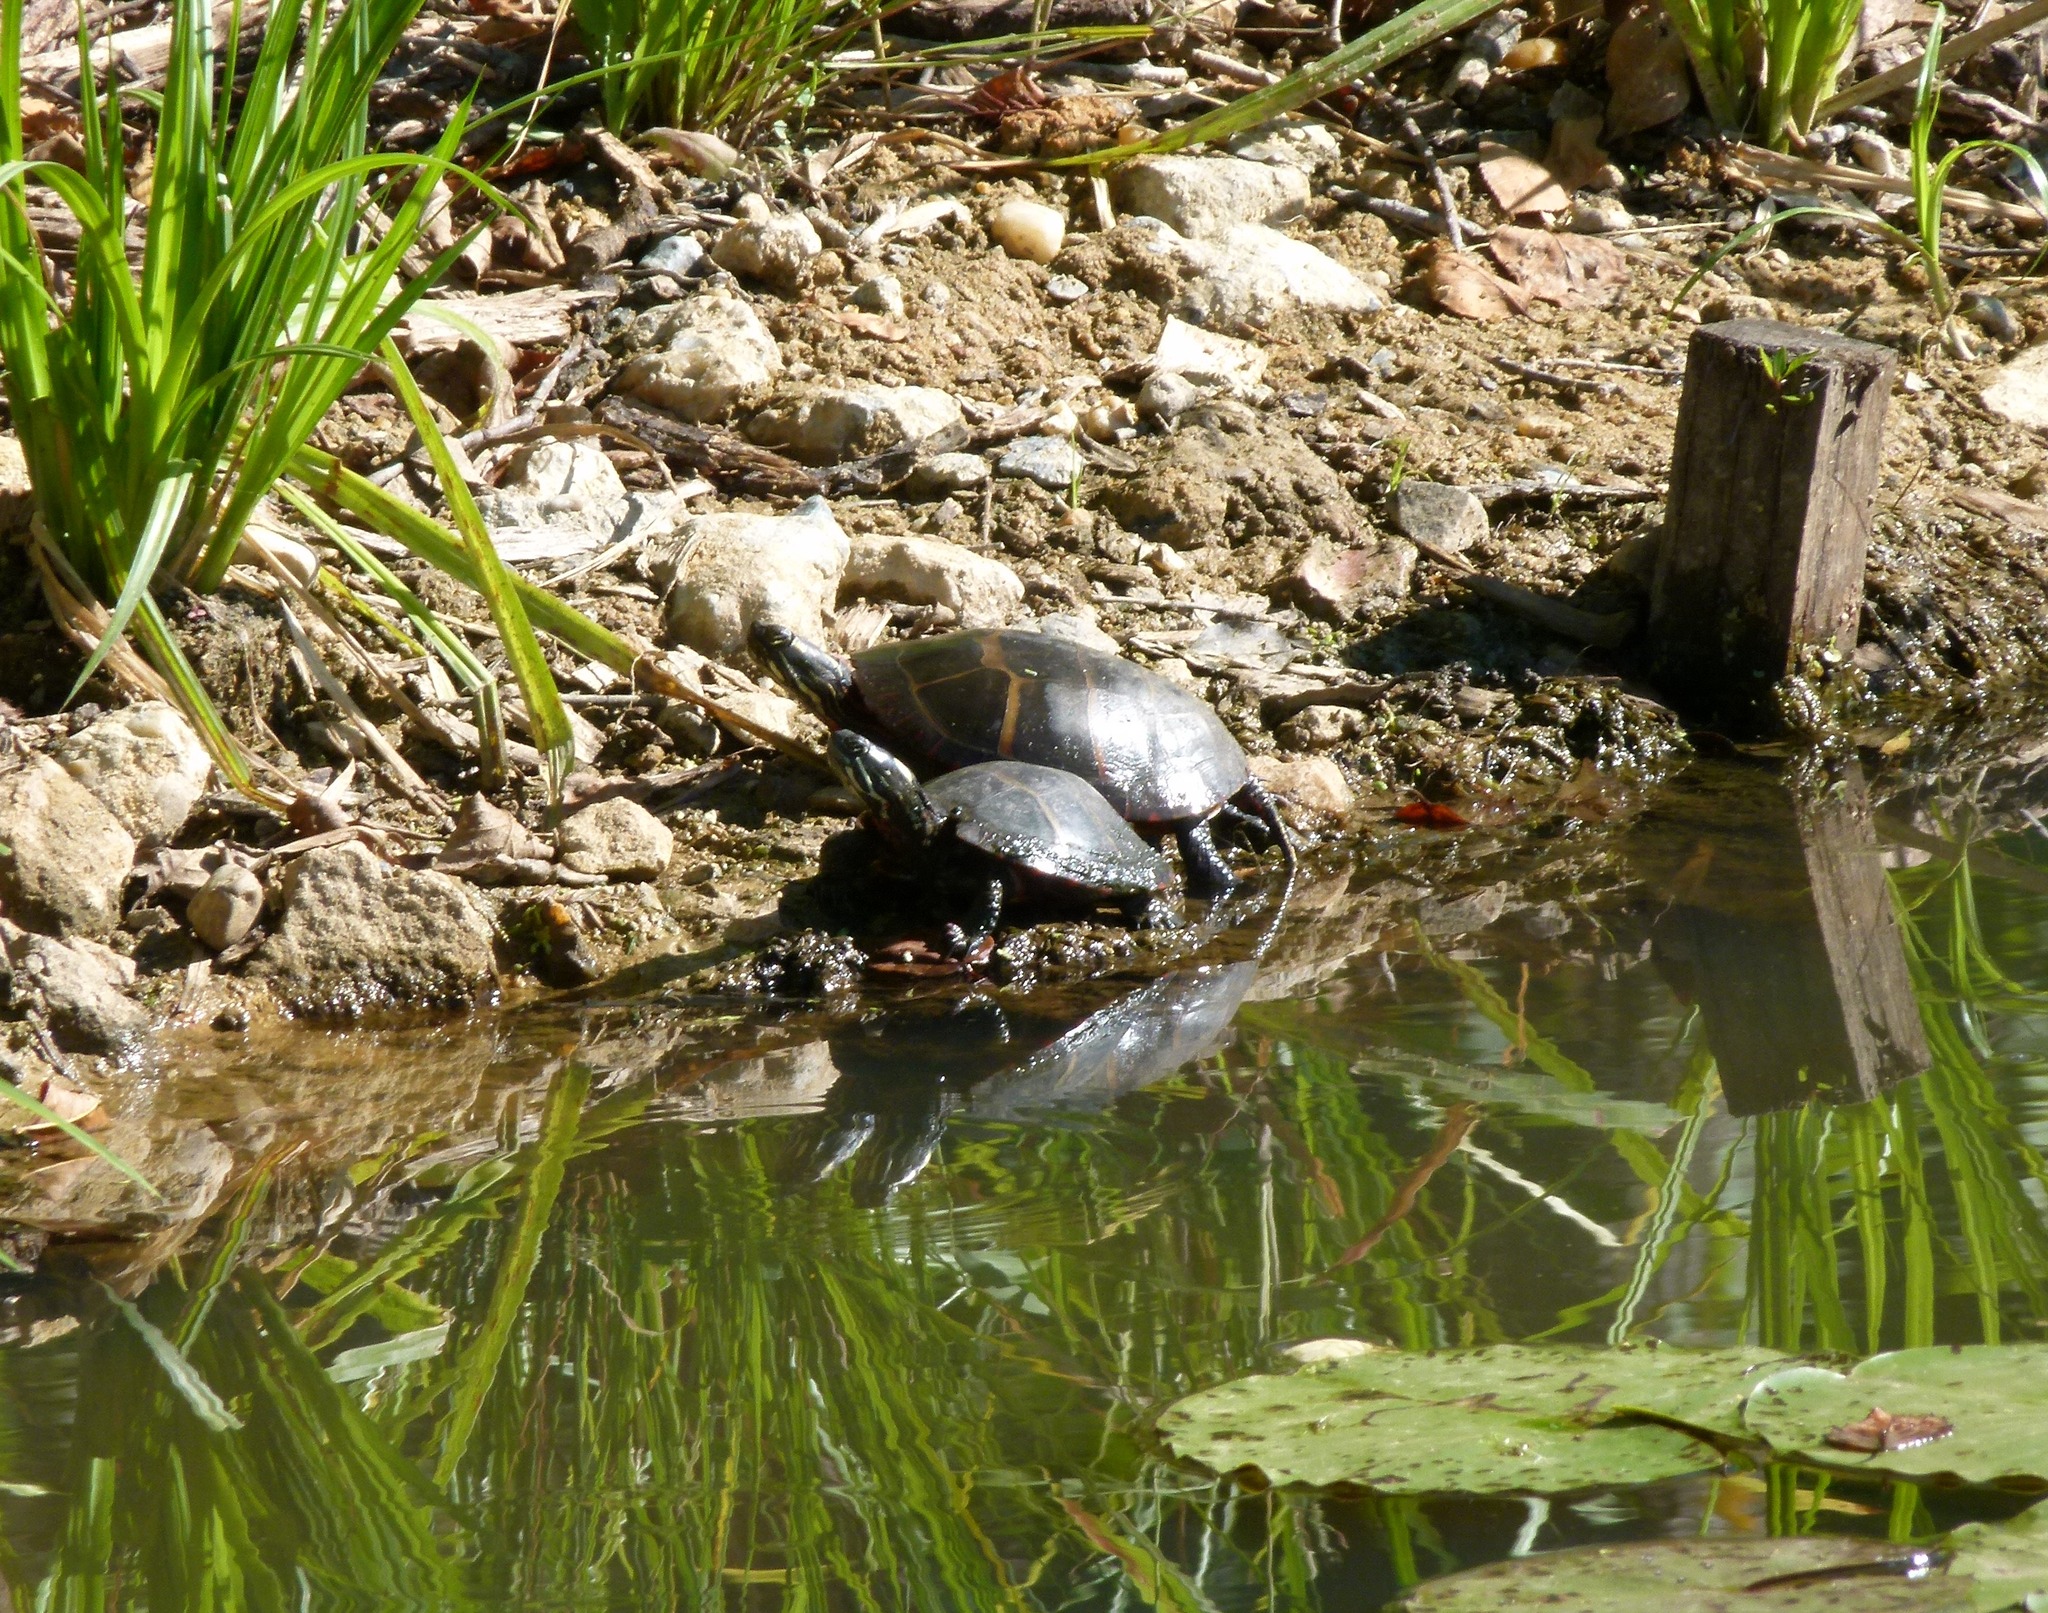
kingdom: Animalia
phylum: Chordata
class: Testudines
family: Emydidae
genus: Chrysemys
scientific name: Chrysemys picta
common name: Painted turtle
